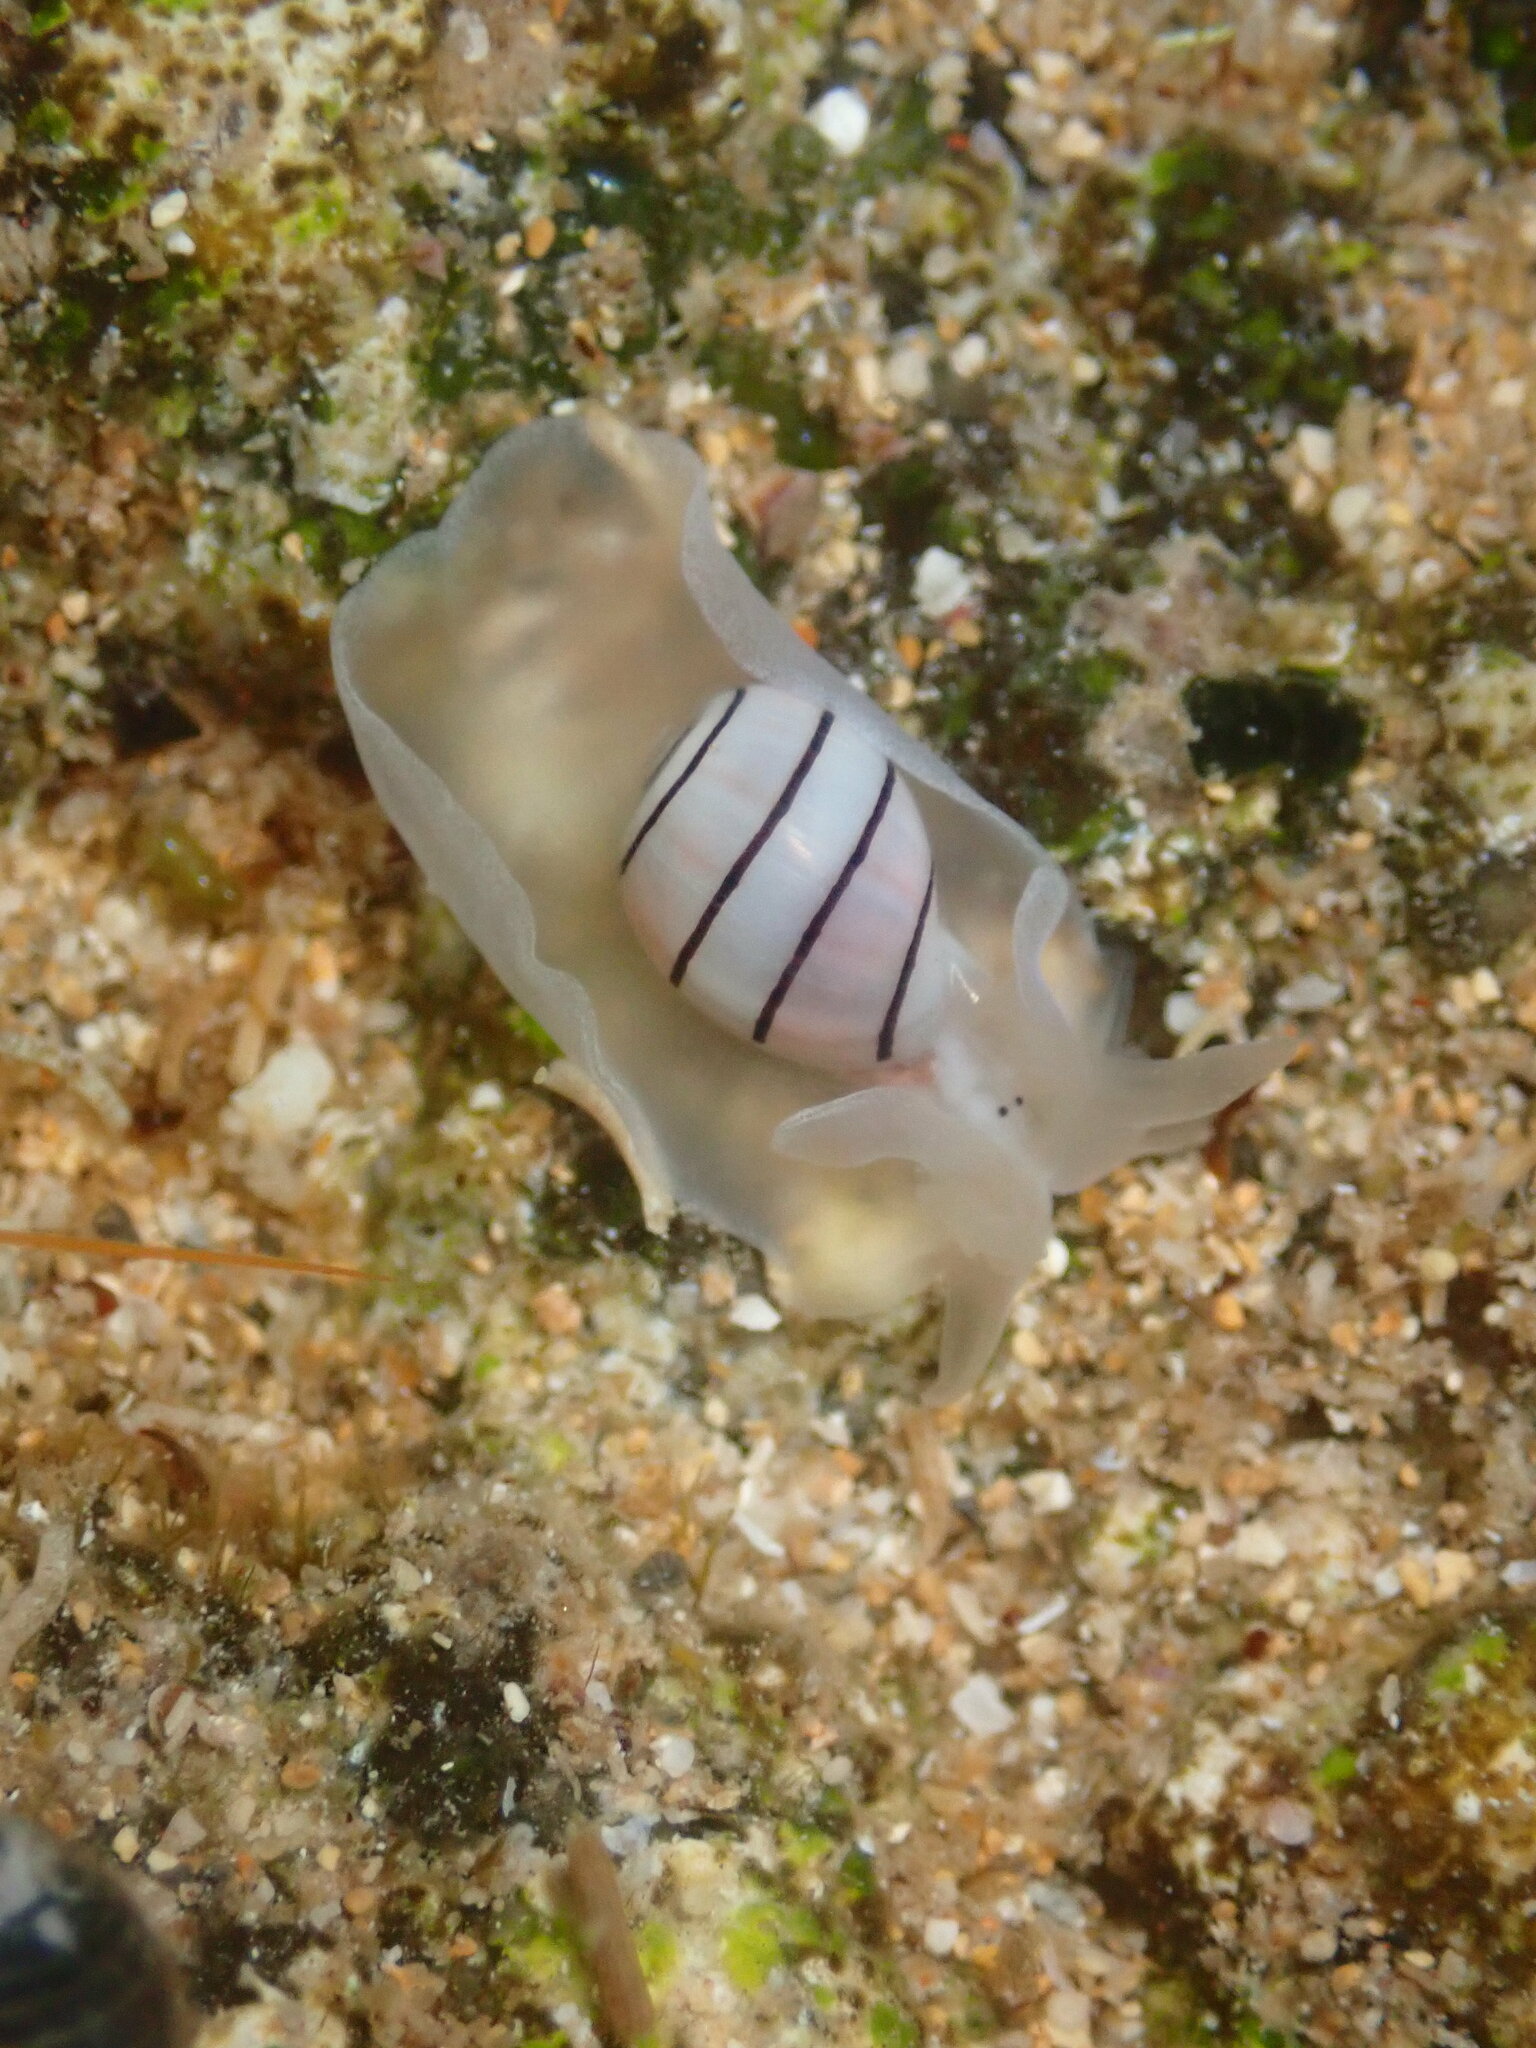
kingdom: Animalia
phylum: Mollusca
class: Gastropoda
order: Cephalaspidea
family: Aplustridae
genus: Aplustrum
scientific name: Aplustrum amplustre
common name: Royal paperbubble
